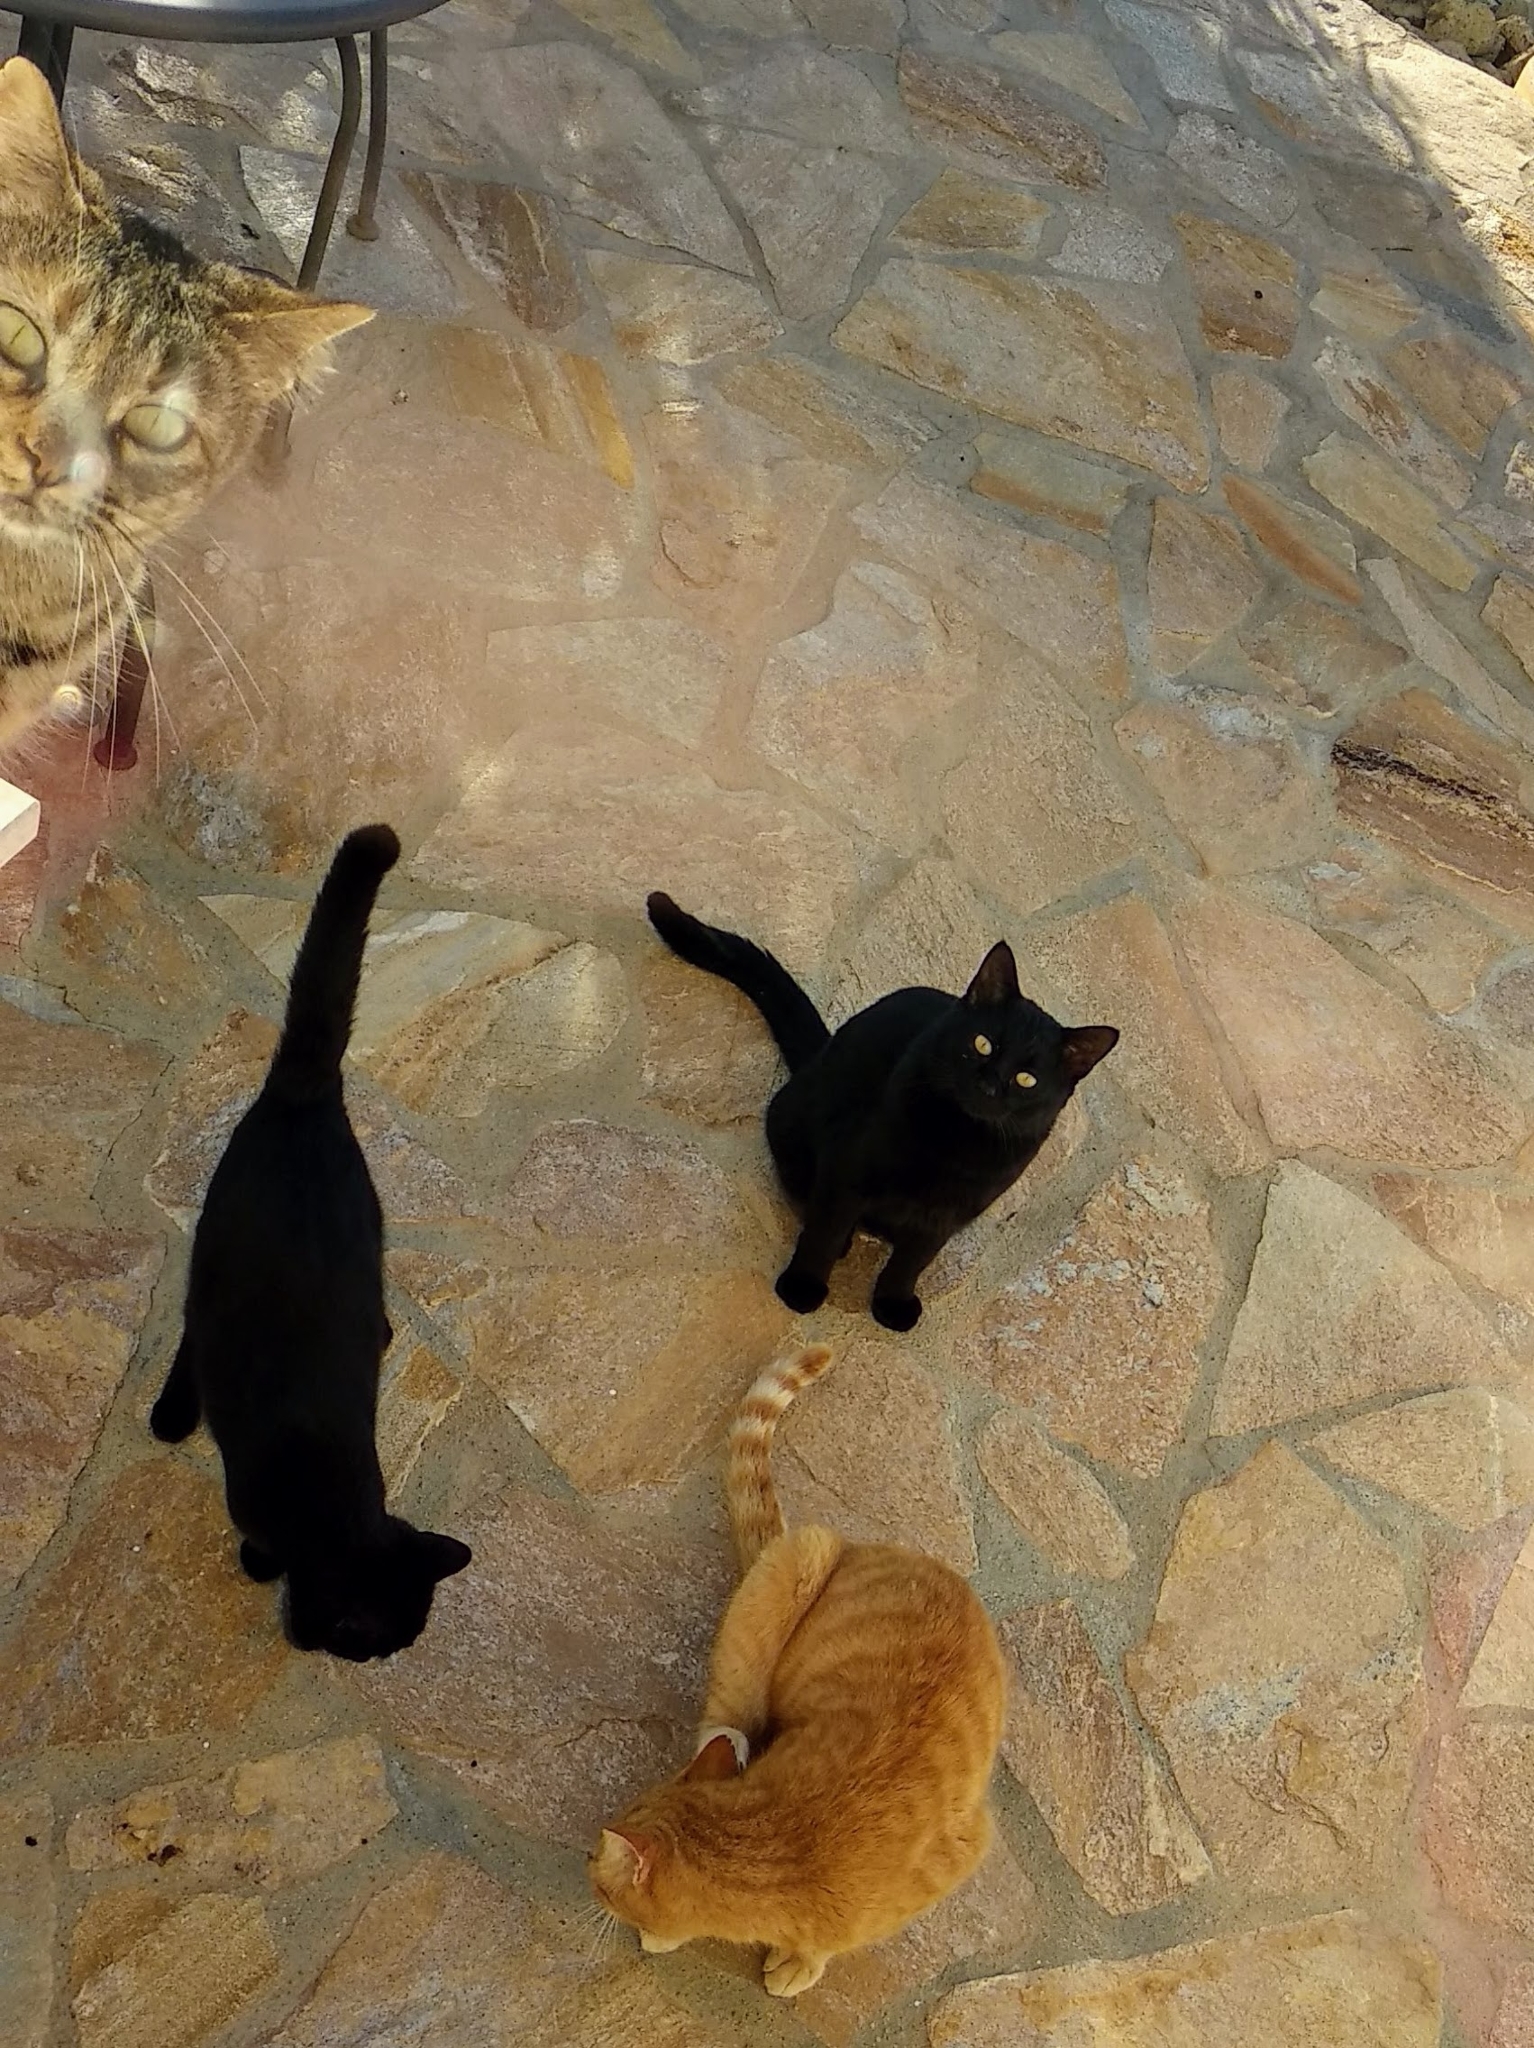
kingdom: Animalia
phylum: Chordata
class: Mammalia
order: Carnivora
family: Felidae
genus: Felis
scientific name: Felis catus
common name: Domestic cat
